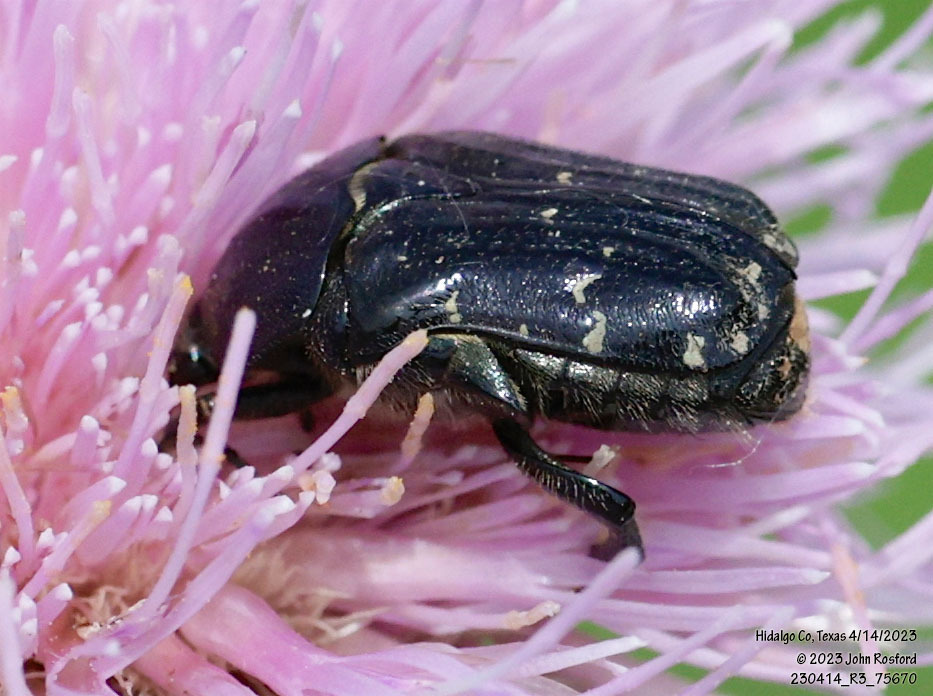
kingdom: Animalia
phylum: Arthropoda
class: Insecta
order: Coleoptera
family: Scarabaeidae
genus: Euphoria
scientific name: Euphoria sepulcralis
